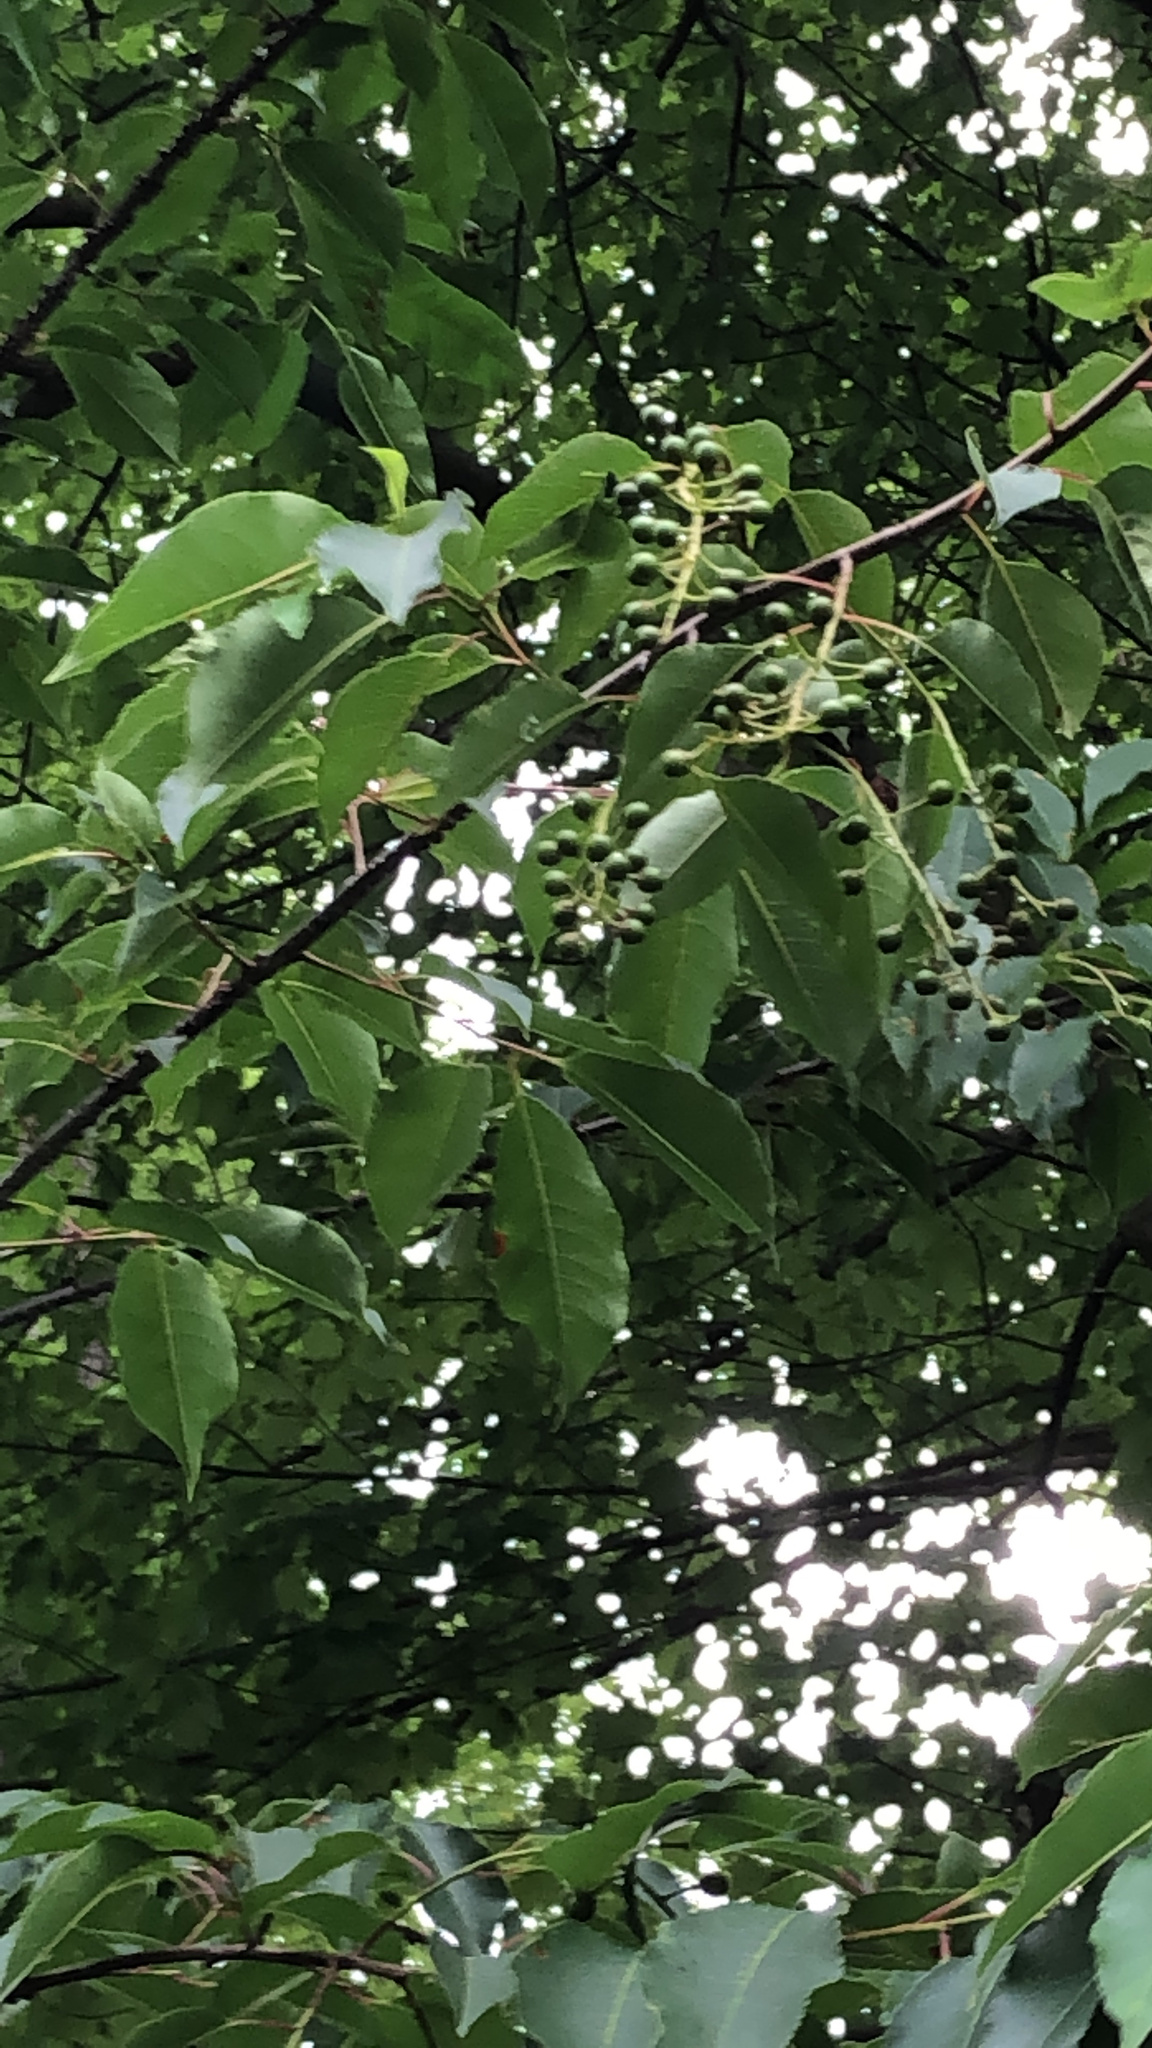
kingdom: Plantae
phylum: Tracheophyta
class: Magnoliopsida
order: Rosales
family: Rosaceae
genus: Prunus
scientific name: Prunus serotina
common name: Black cherry
